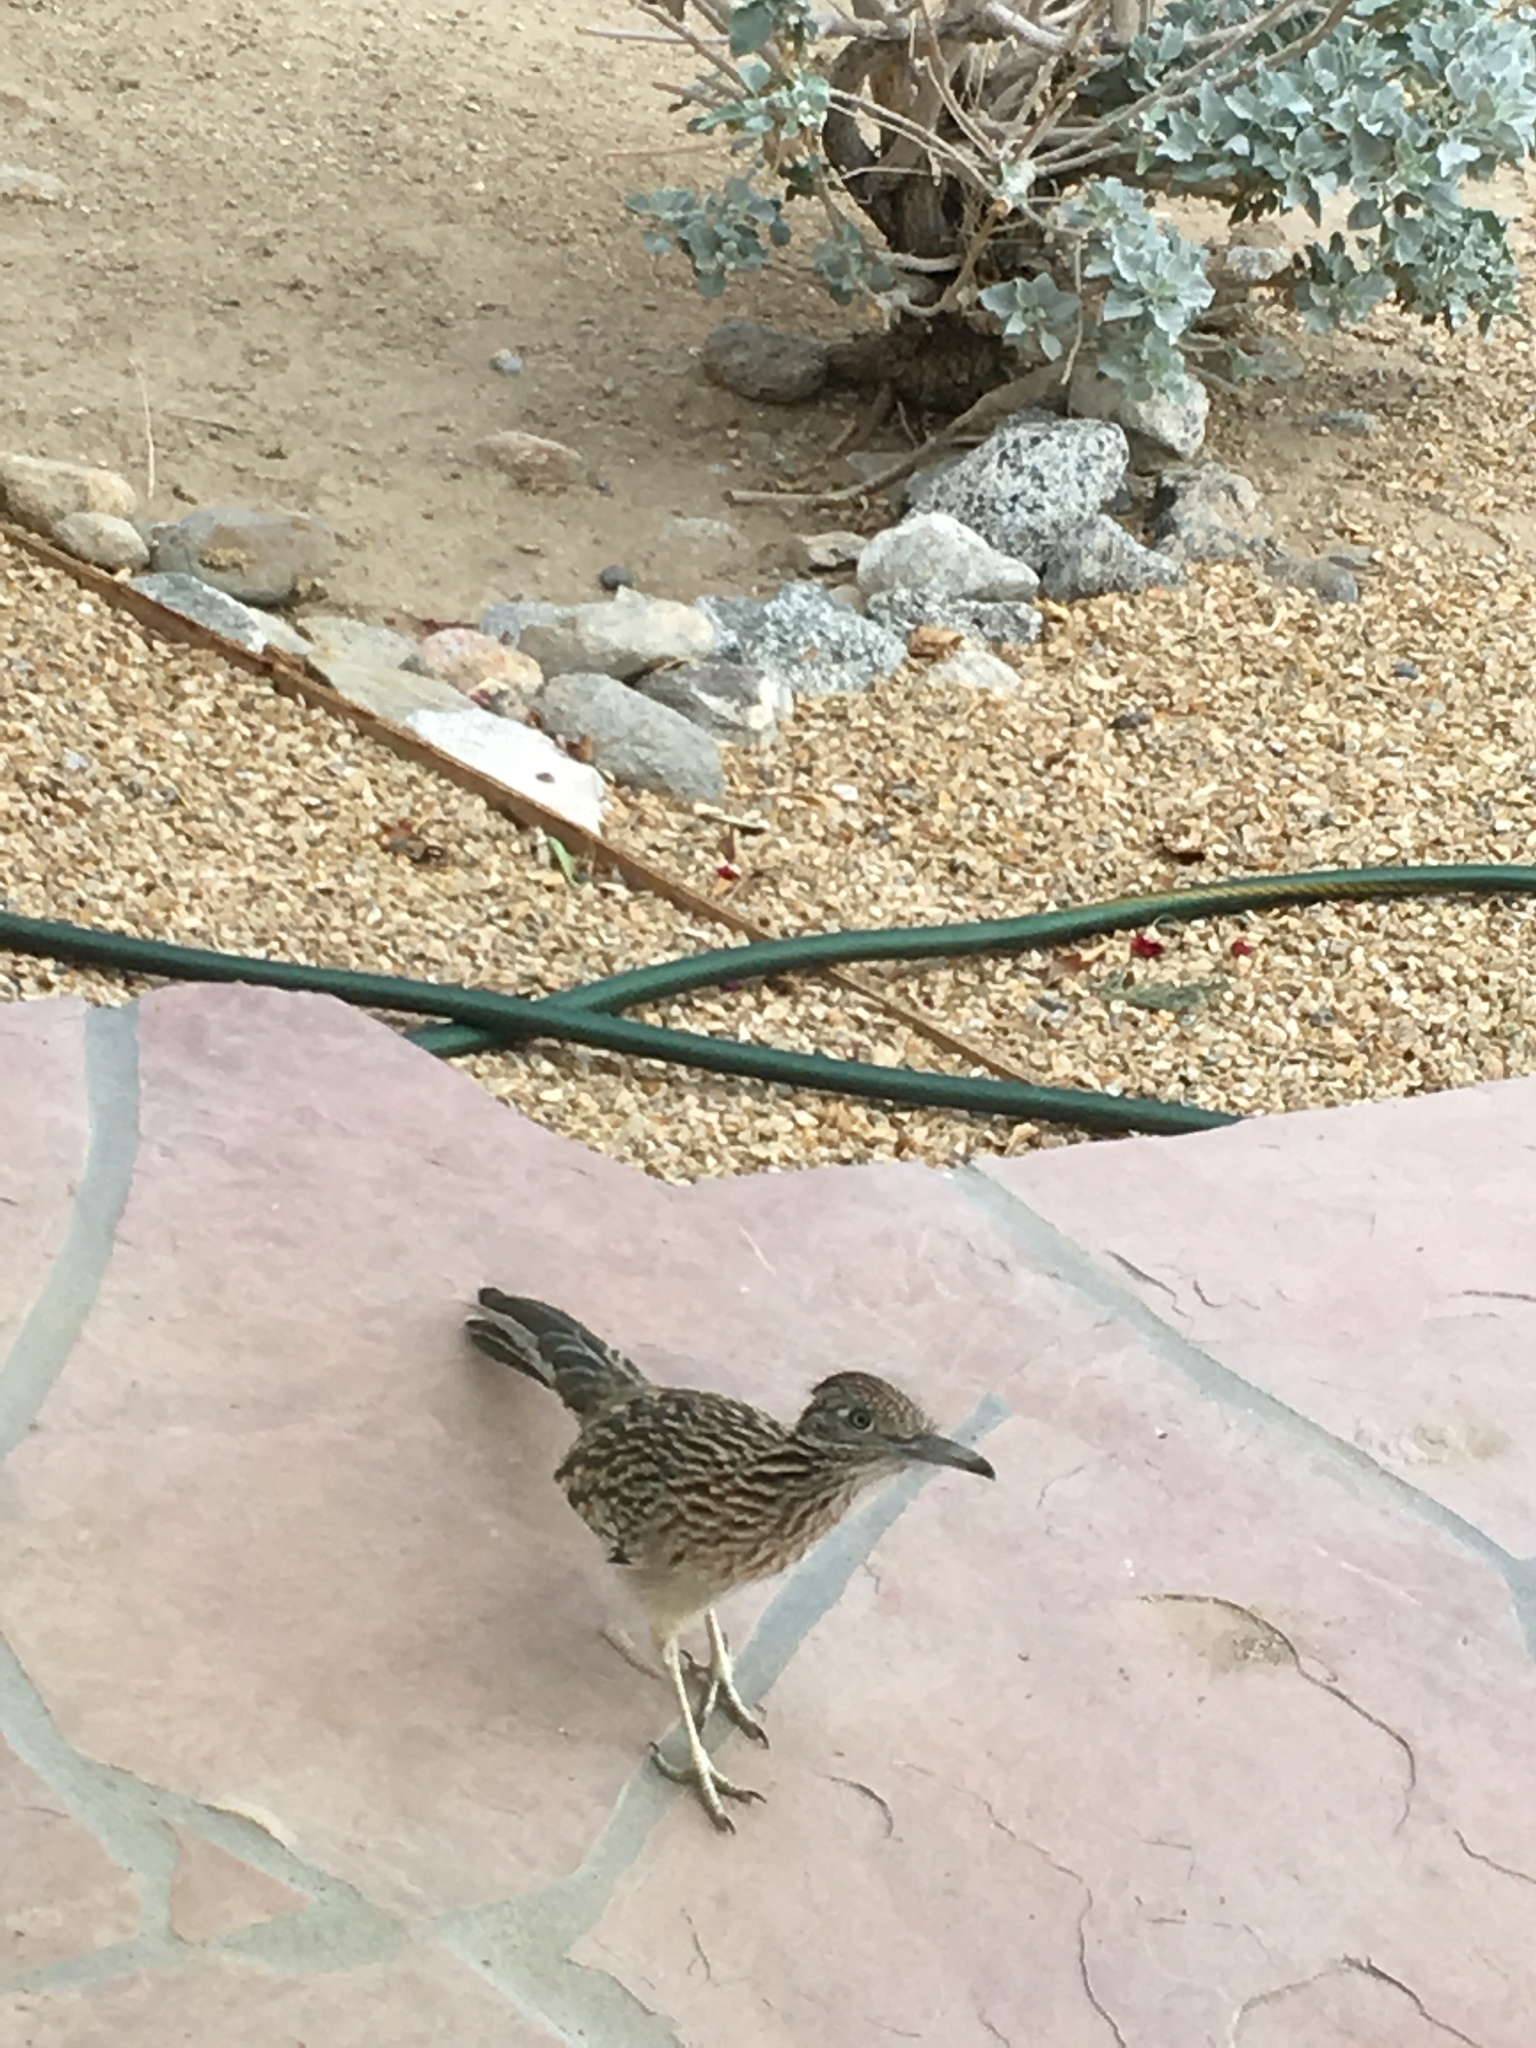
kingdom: Animalia
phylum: Chordata
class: Aves
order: Cuculiformes
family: Cuculidae
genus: Geococcyx
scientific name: Geococcyx californianus
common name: Greater roadrunner
